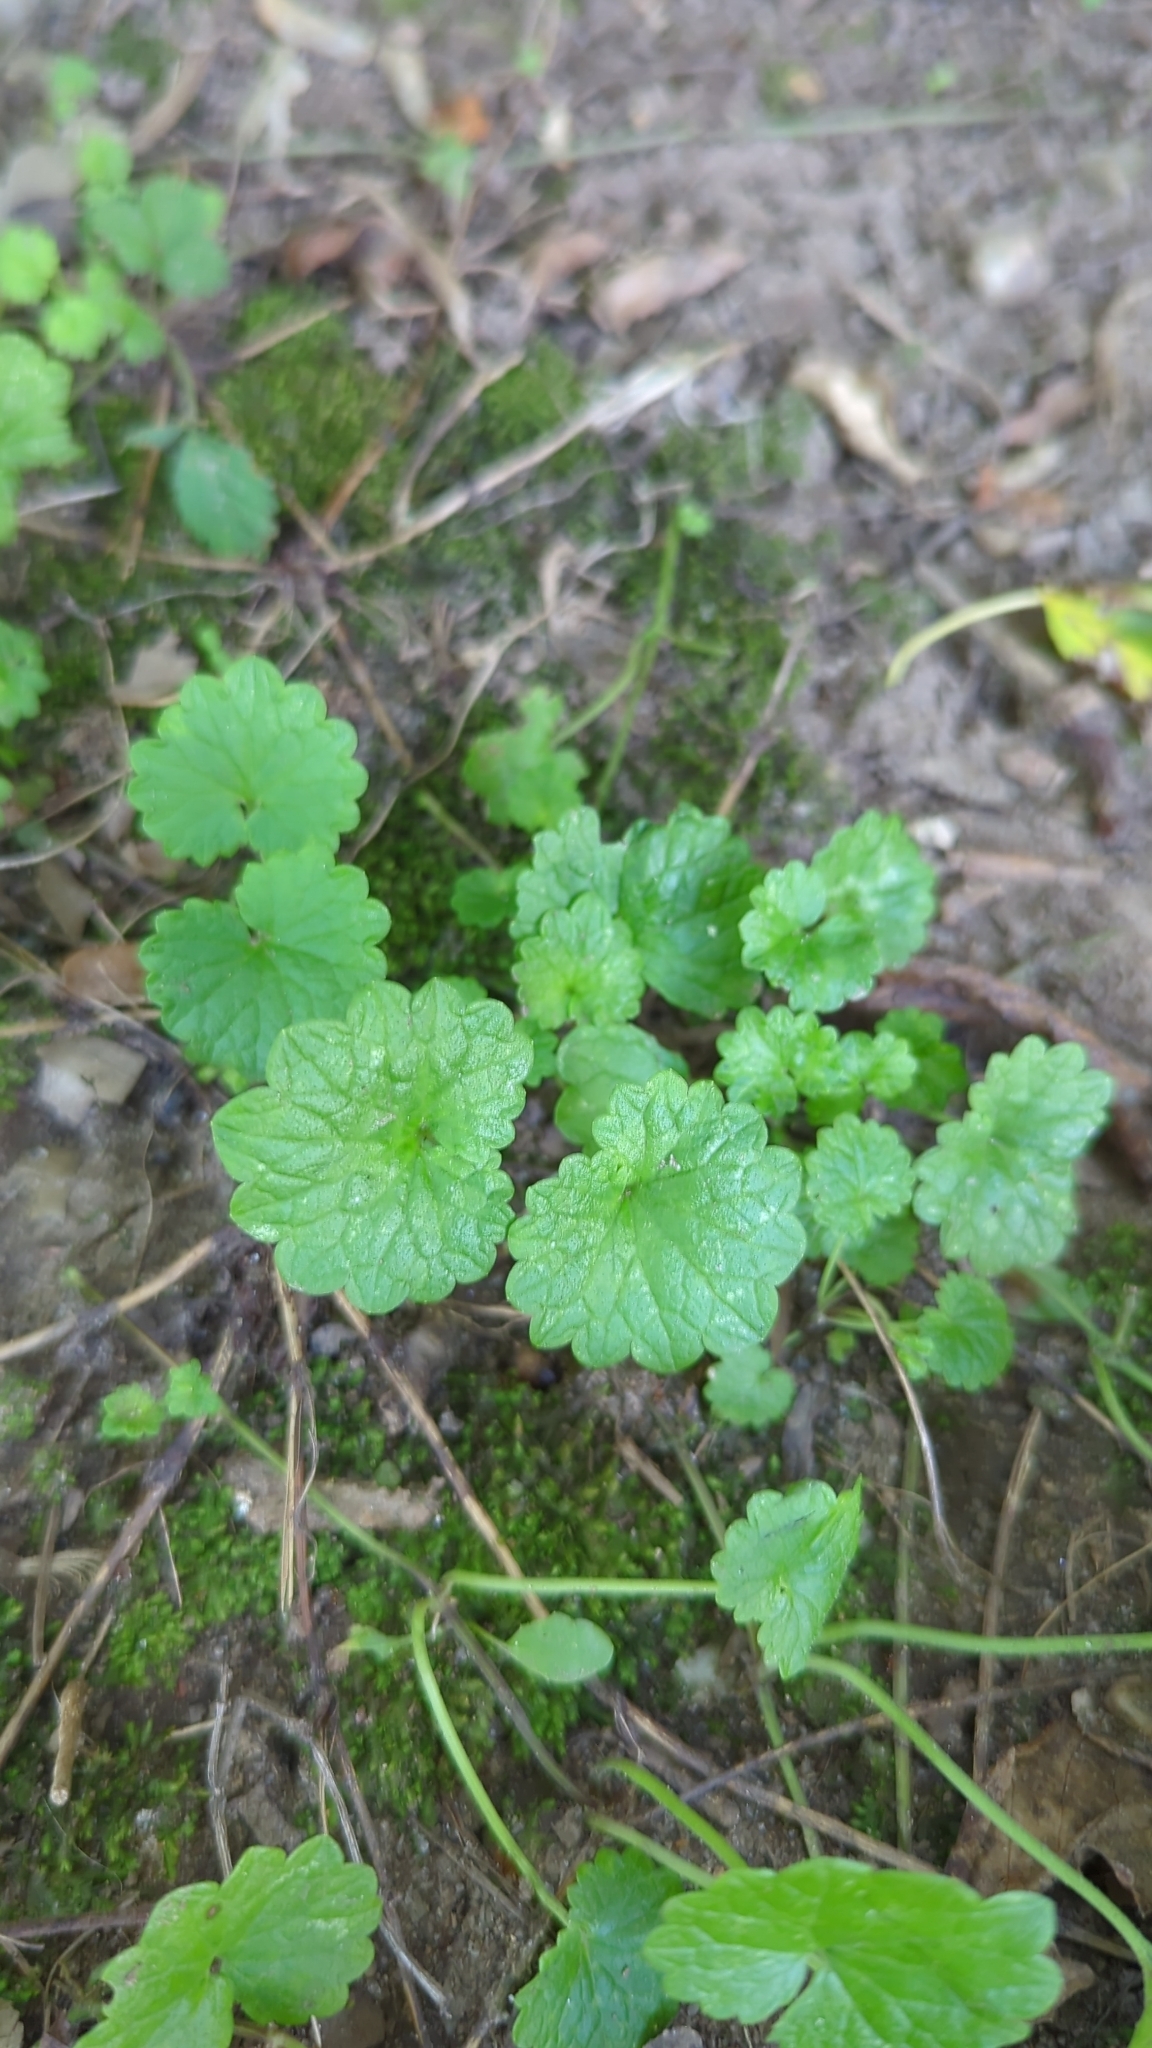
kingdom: Plantae
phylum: Tracheophyta
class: Magnoliopsida
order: Lamiales
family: Lamiaceae
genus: Glechoma
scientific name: Glechoma hederacea
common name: Ground ivy
